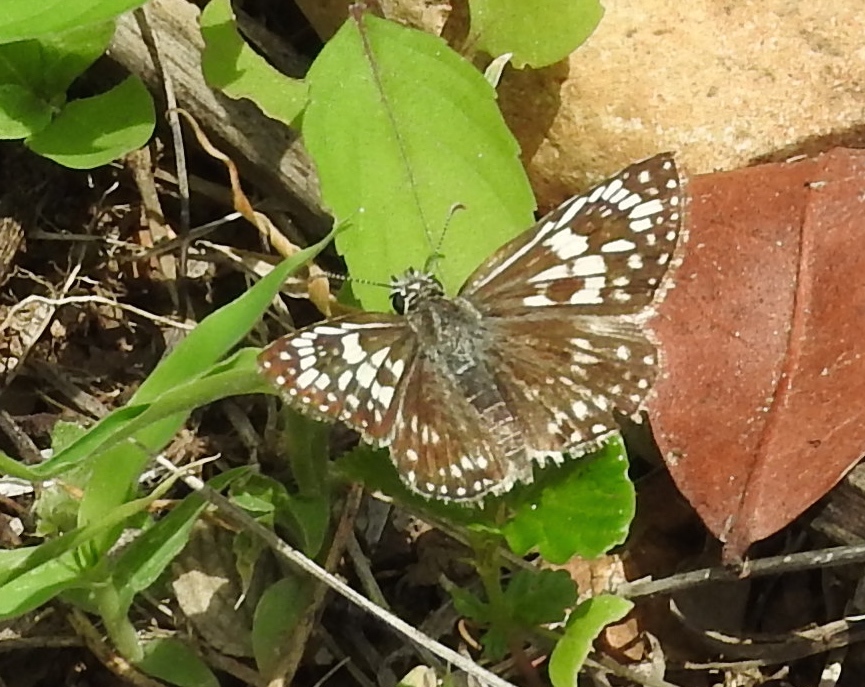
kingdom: Animalia
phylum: Arthropoda
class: Insecta
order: Lepidoptera
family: Hesperiidae
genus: Pyrgus
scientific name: Pyrgus oileus
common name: Tropical checkered-skipper
